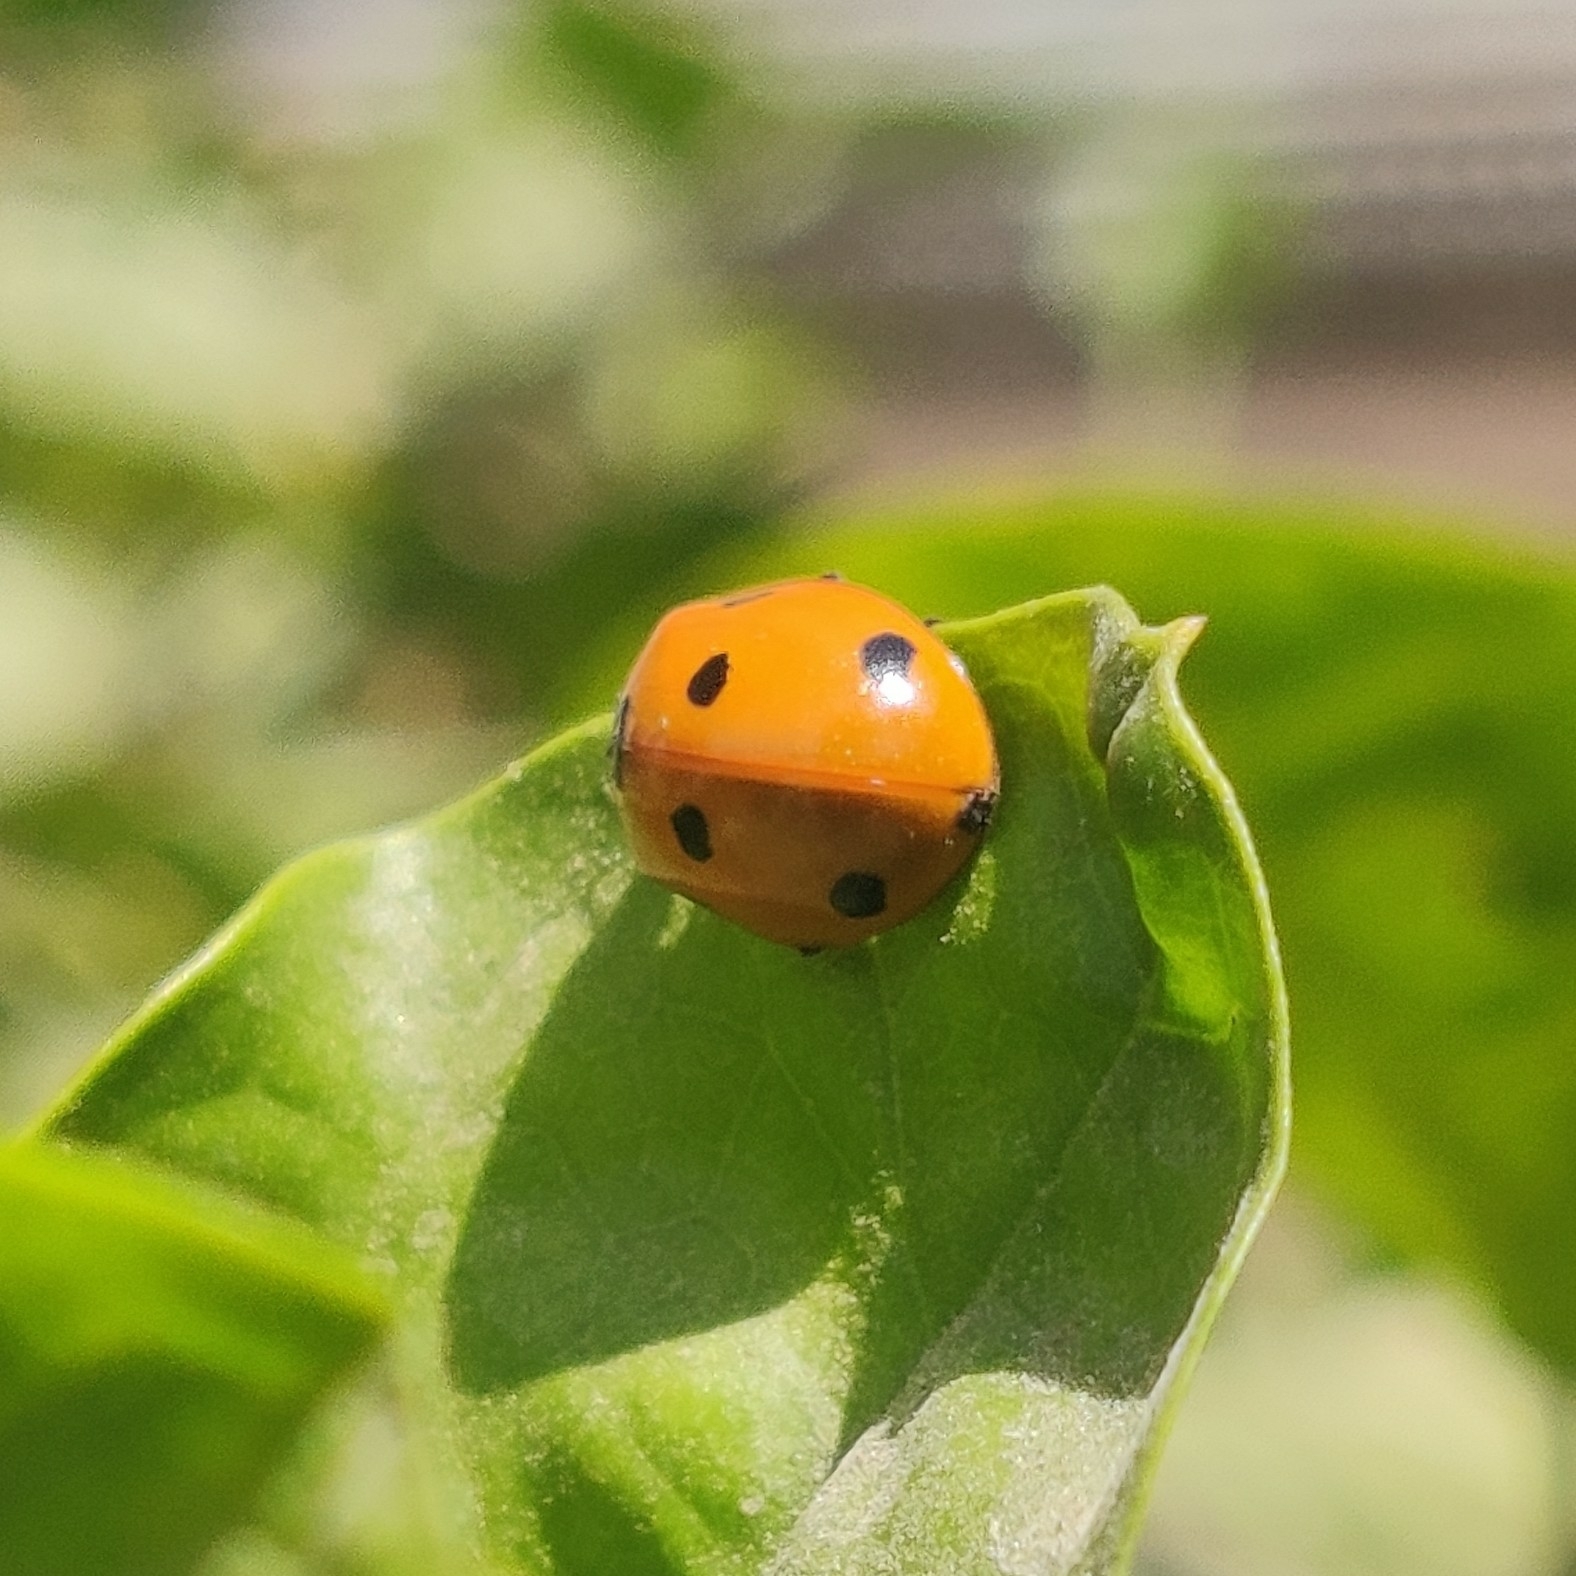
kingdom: Animalia
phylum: Arthropoda
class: Insecta
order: Coleoptera
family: Coccinellidae
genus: Coccinella
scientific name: Coccinella septempunctata
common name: Sevenspotted lady beetle
